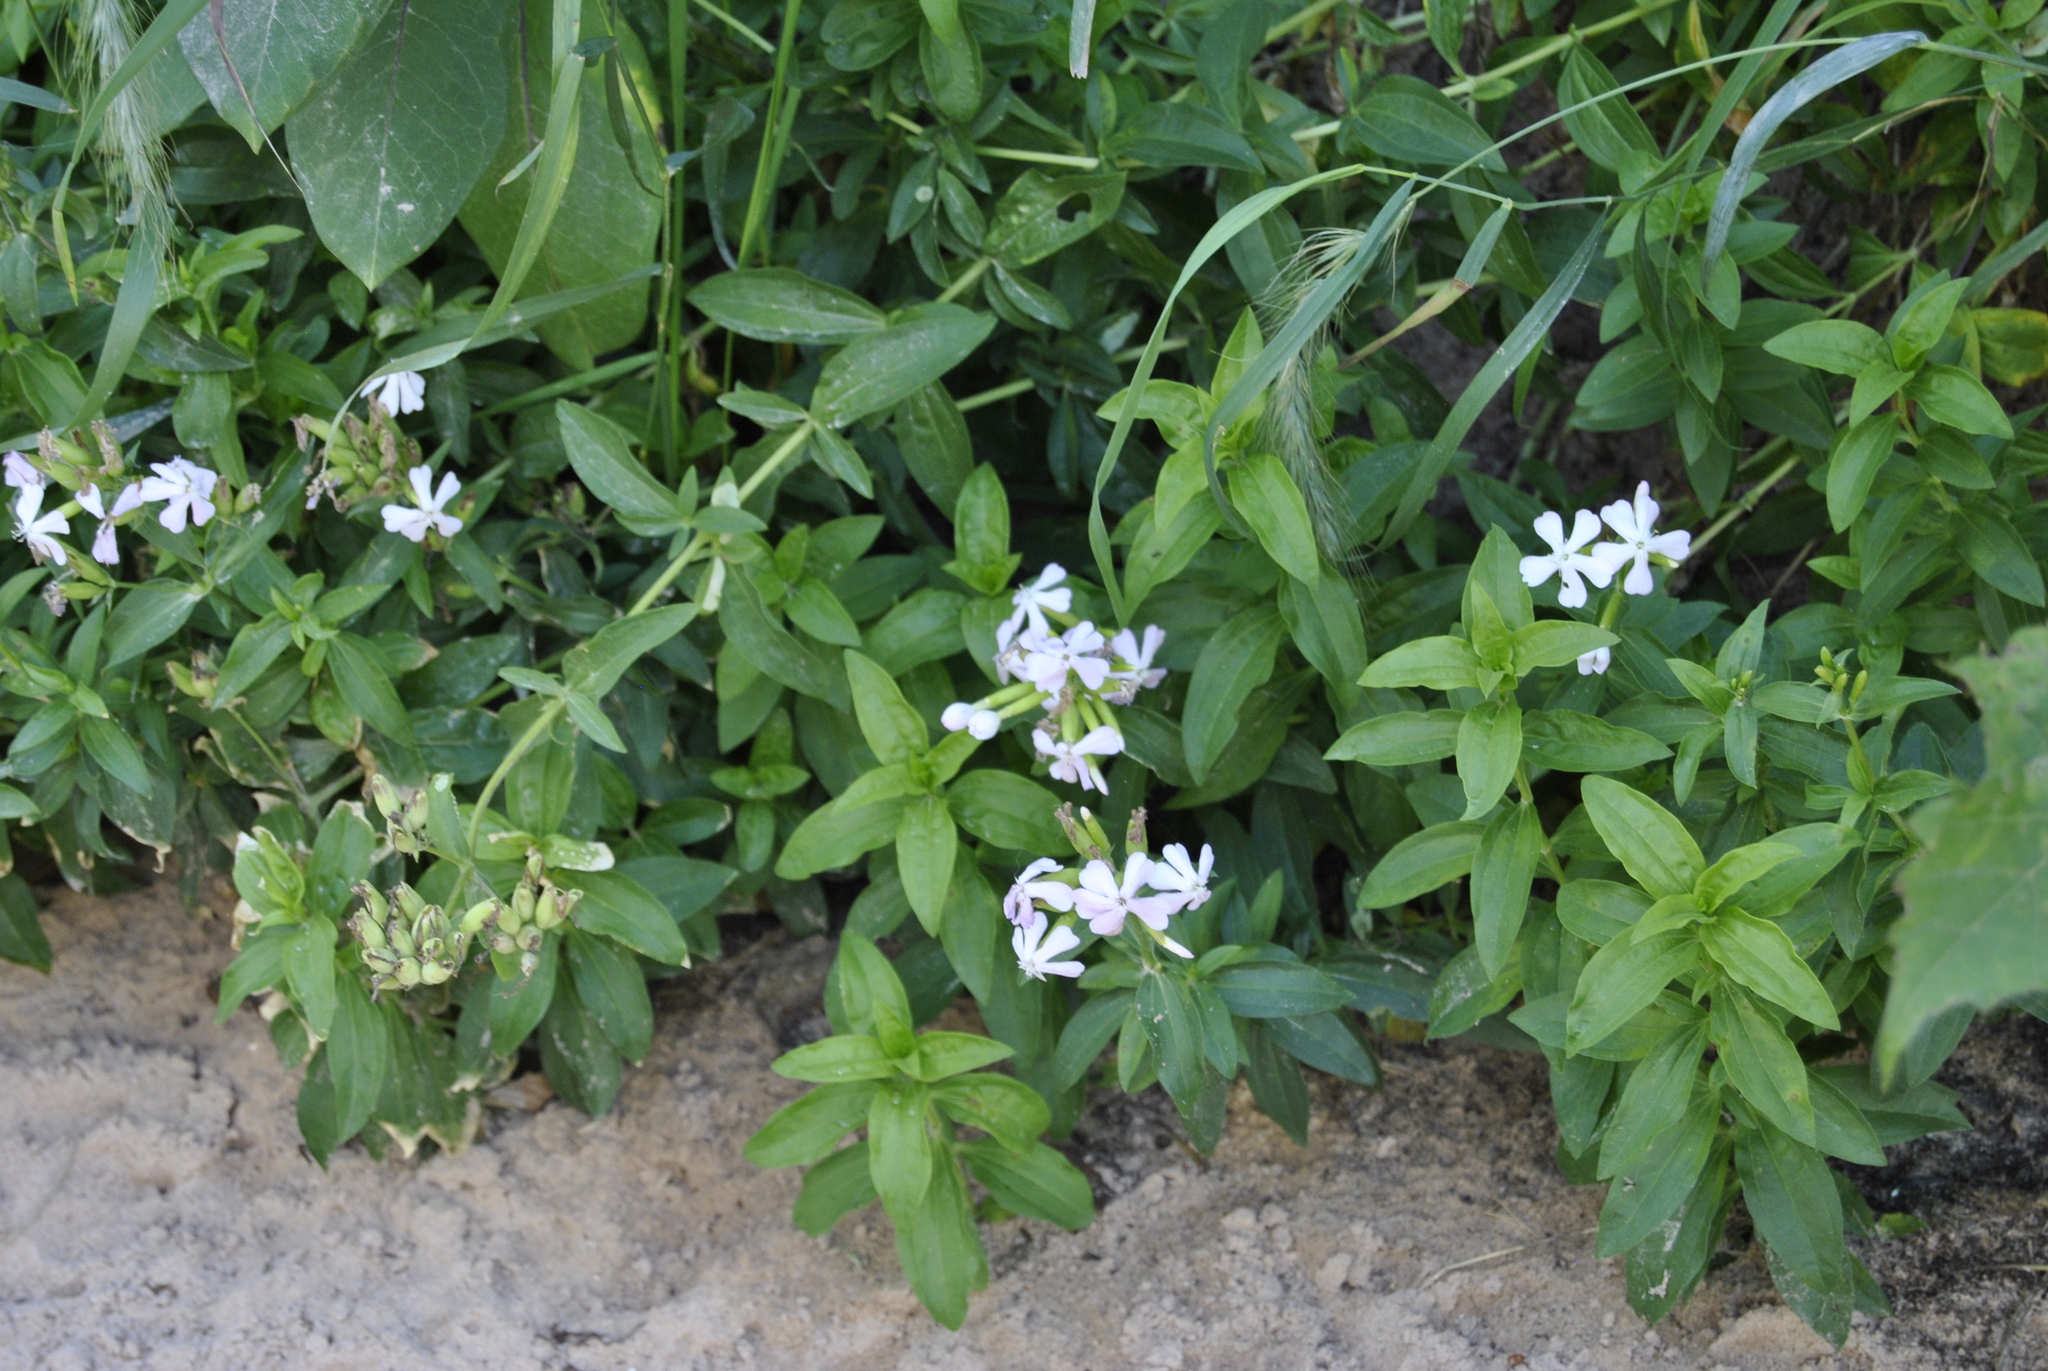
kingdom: Plantae
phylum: Tracheophyta
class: Magnoliopsida
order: Caryophyllales
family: Caryophyllaceae
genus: Saponaria
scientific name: Saponaria officinalis
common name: Soapwort
